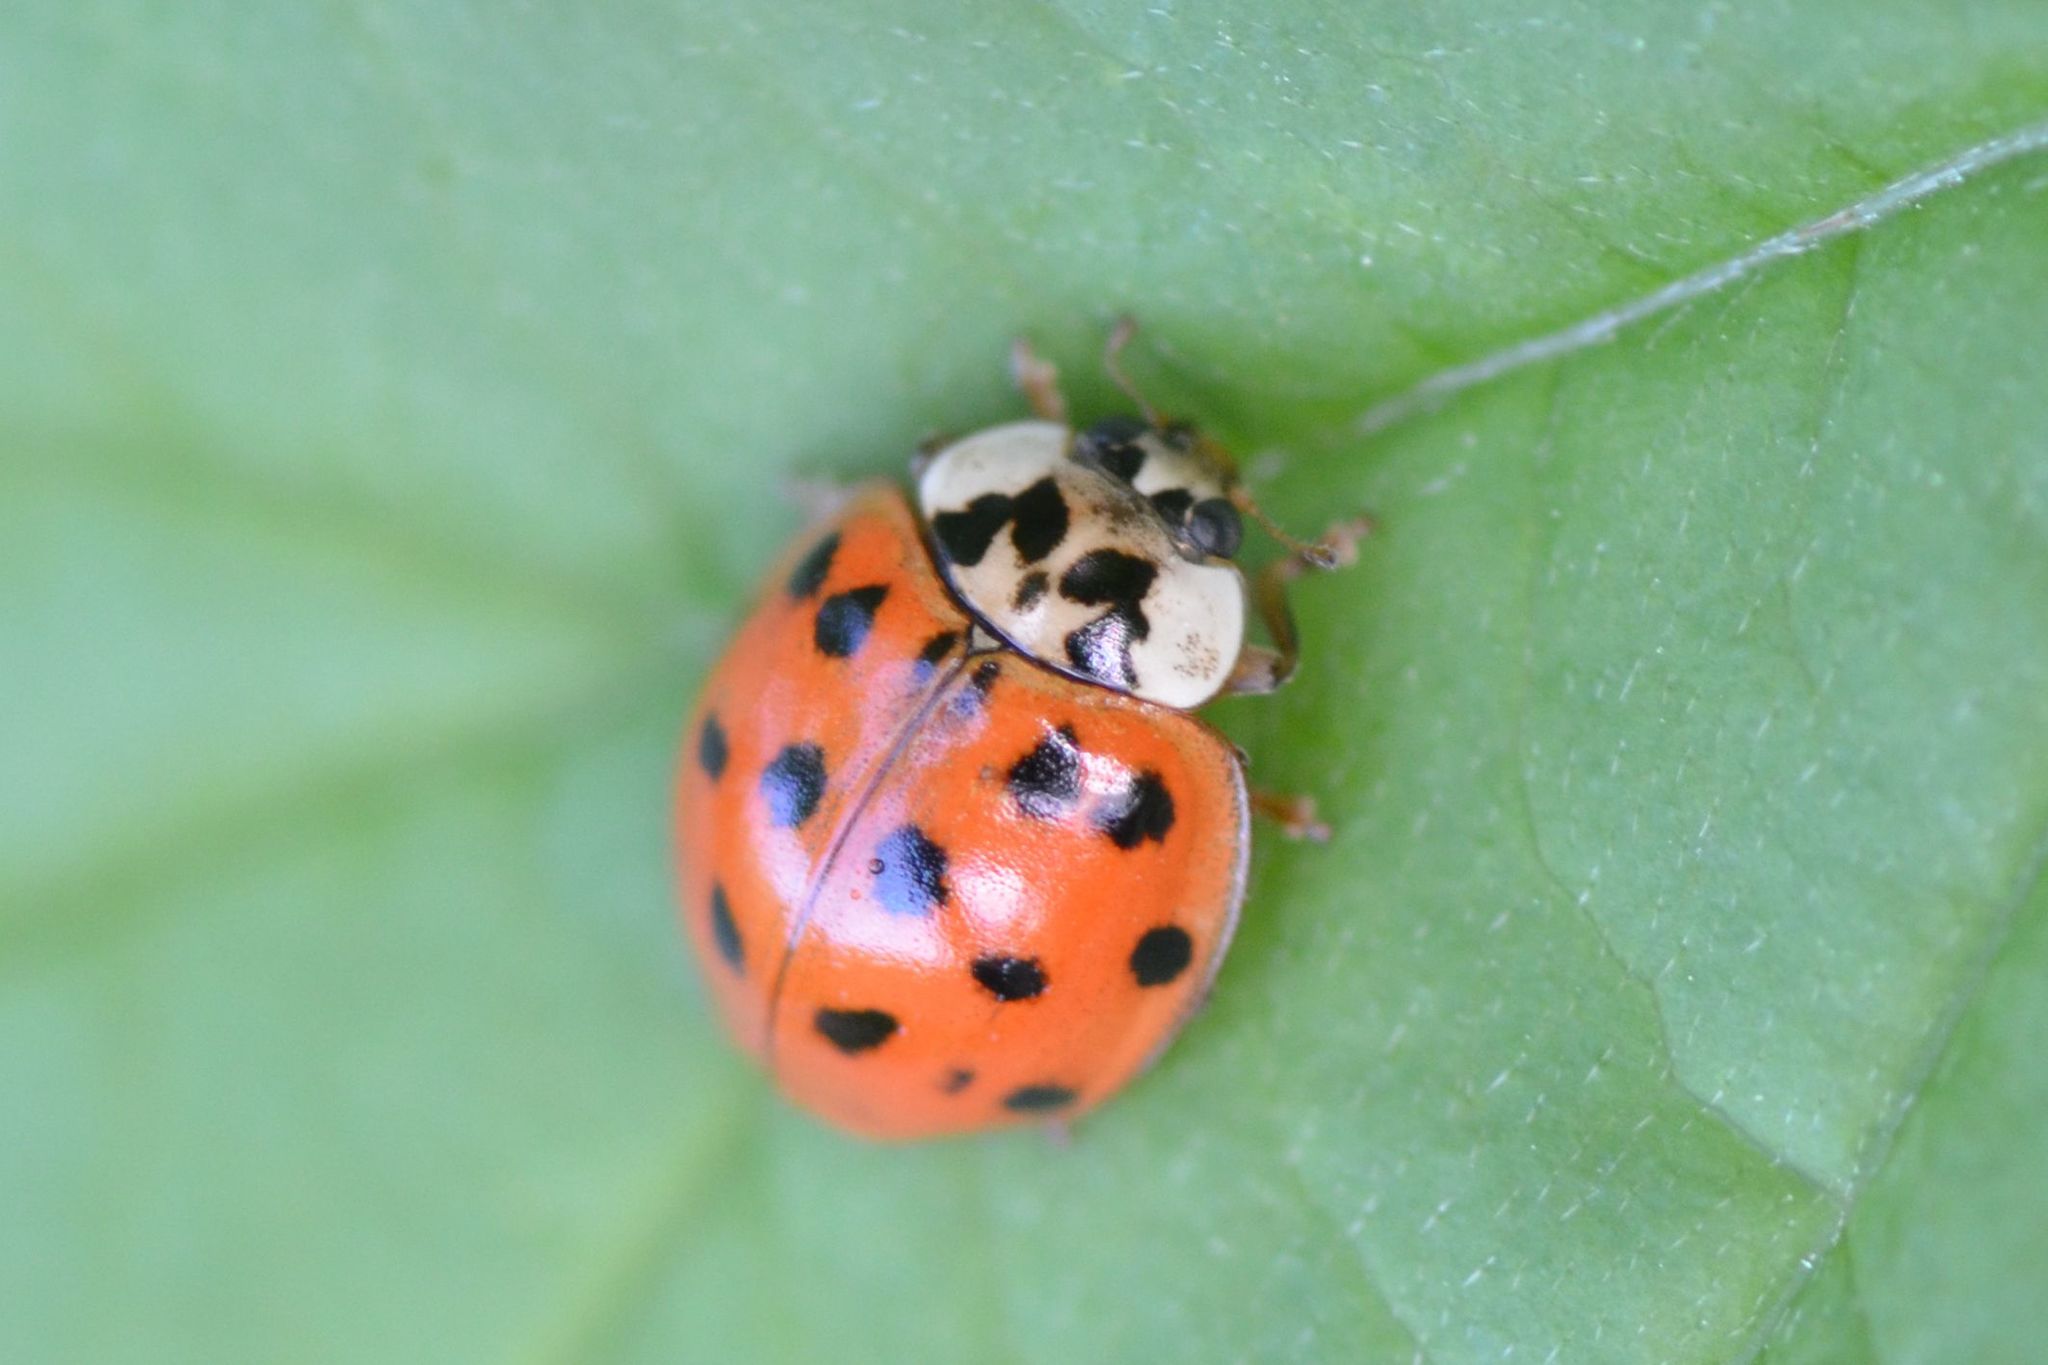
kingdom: Animalia
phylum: Arthropoda
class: Insecta
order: Coleoptera
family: Coccinellidae
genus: Harmonia
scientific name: Harmonia axyridis
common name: Harlequin ladybird
